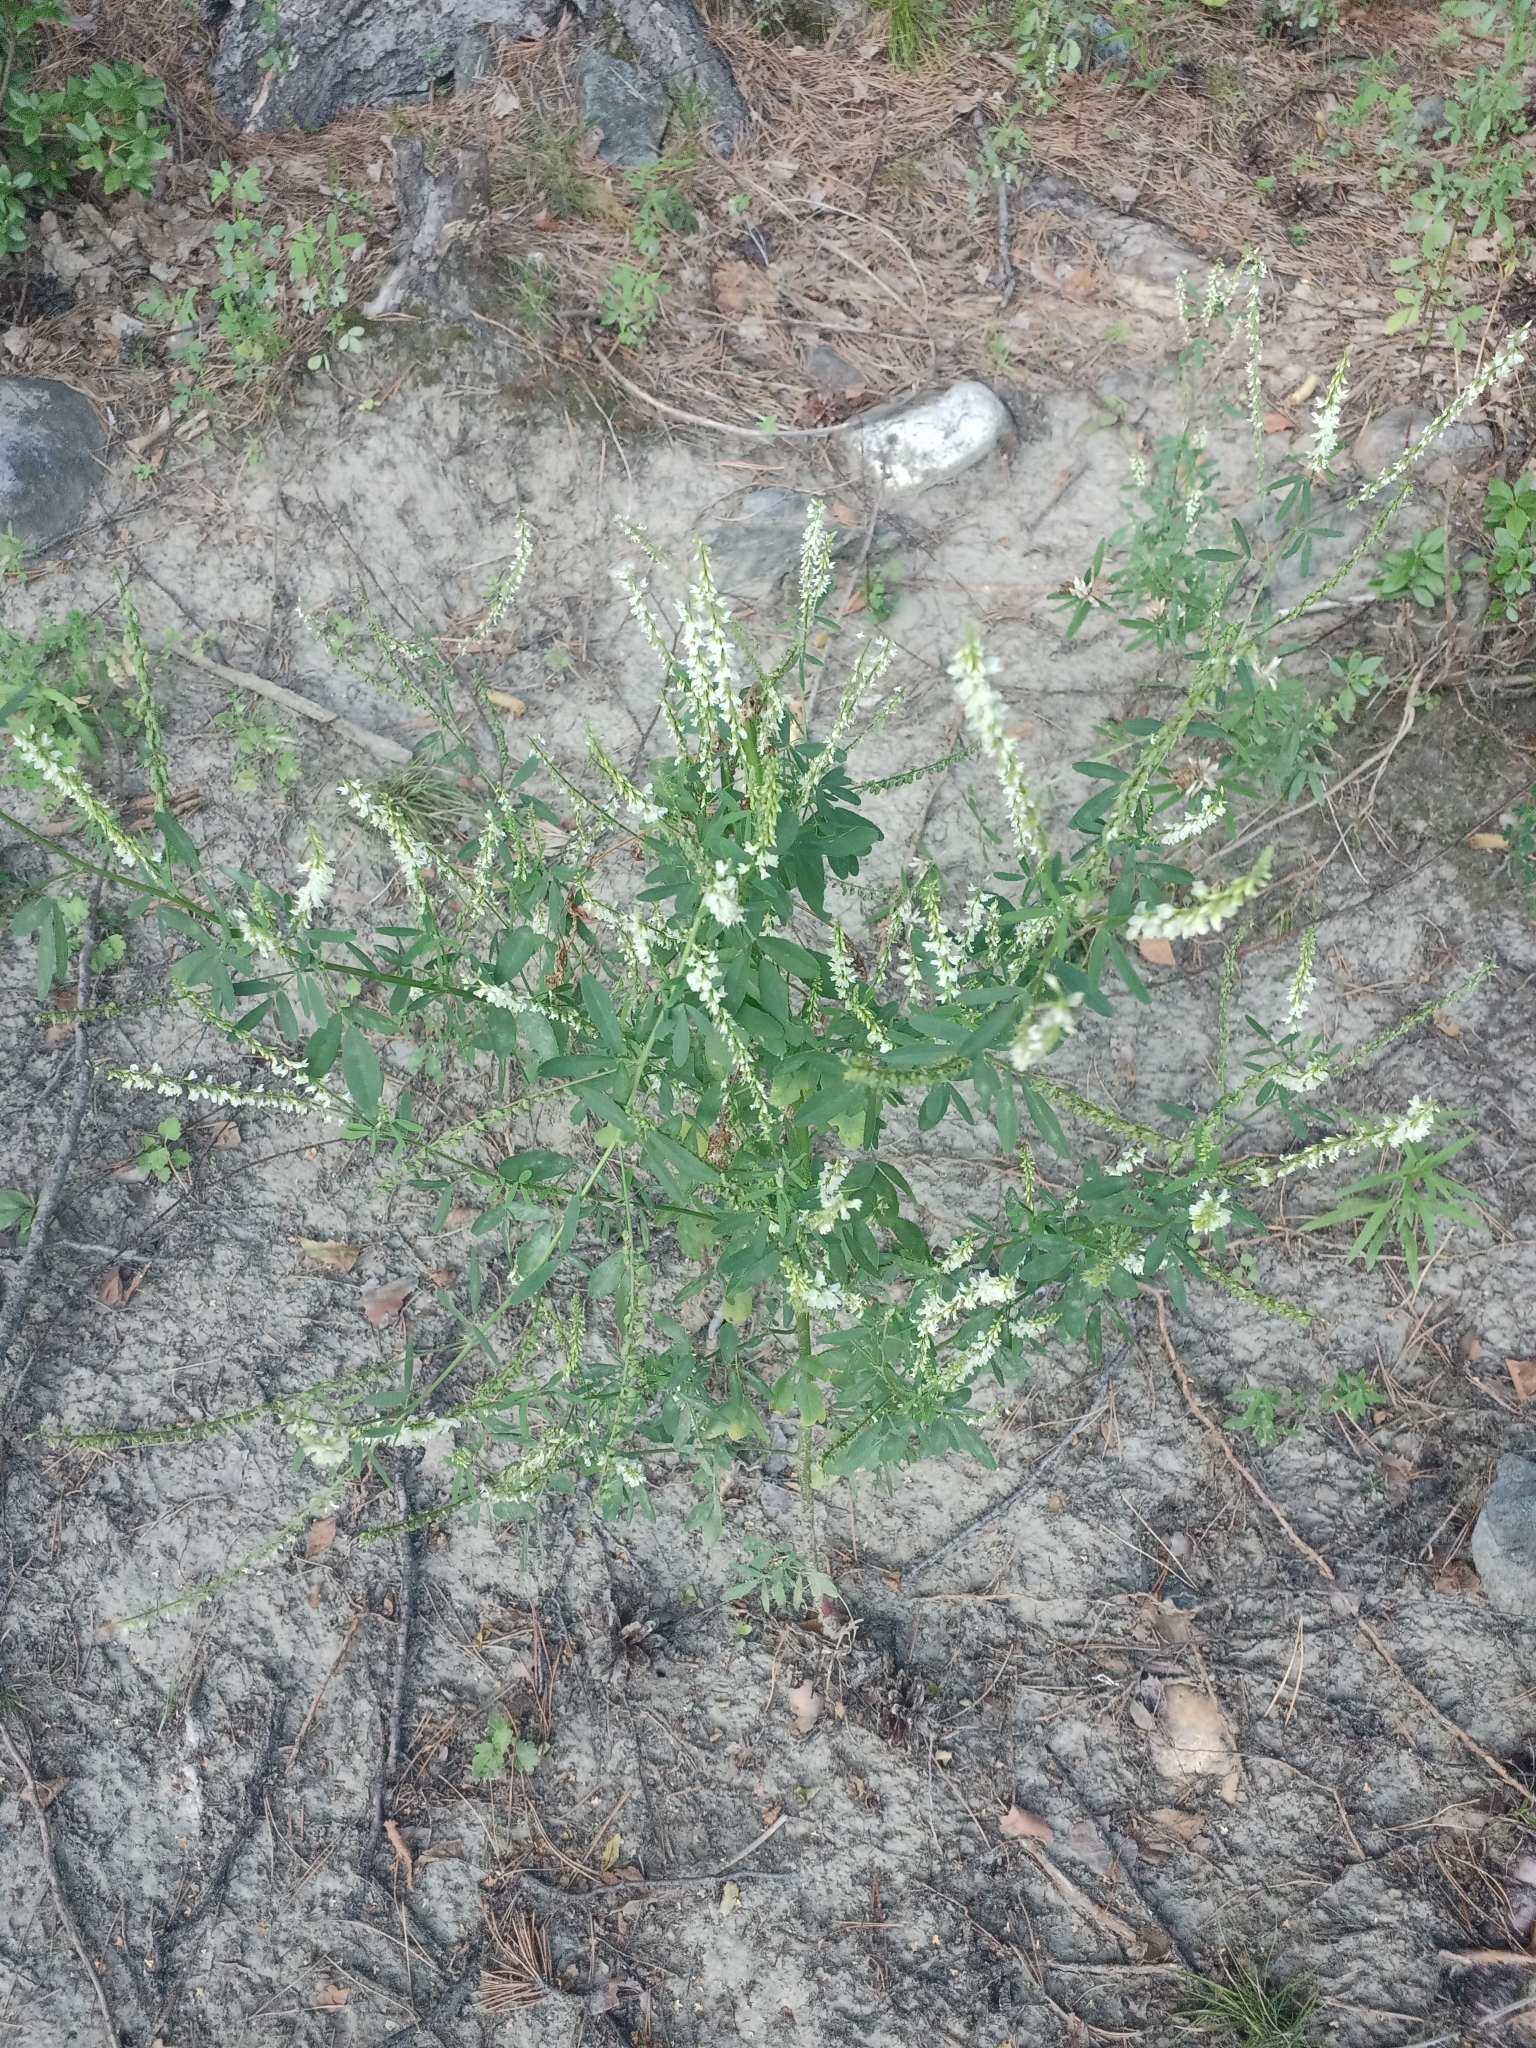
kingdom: Plantae
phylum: Tracheophyta
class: Magnoliopsida
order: Fabales
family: Fabaceae
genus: Melilotus
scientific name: Melilotus albus
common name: White melilot
